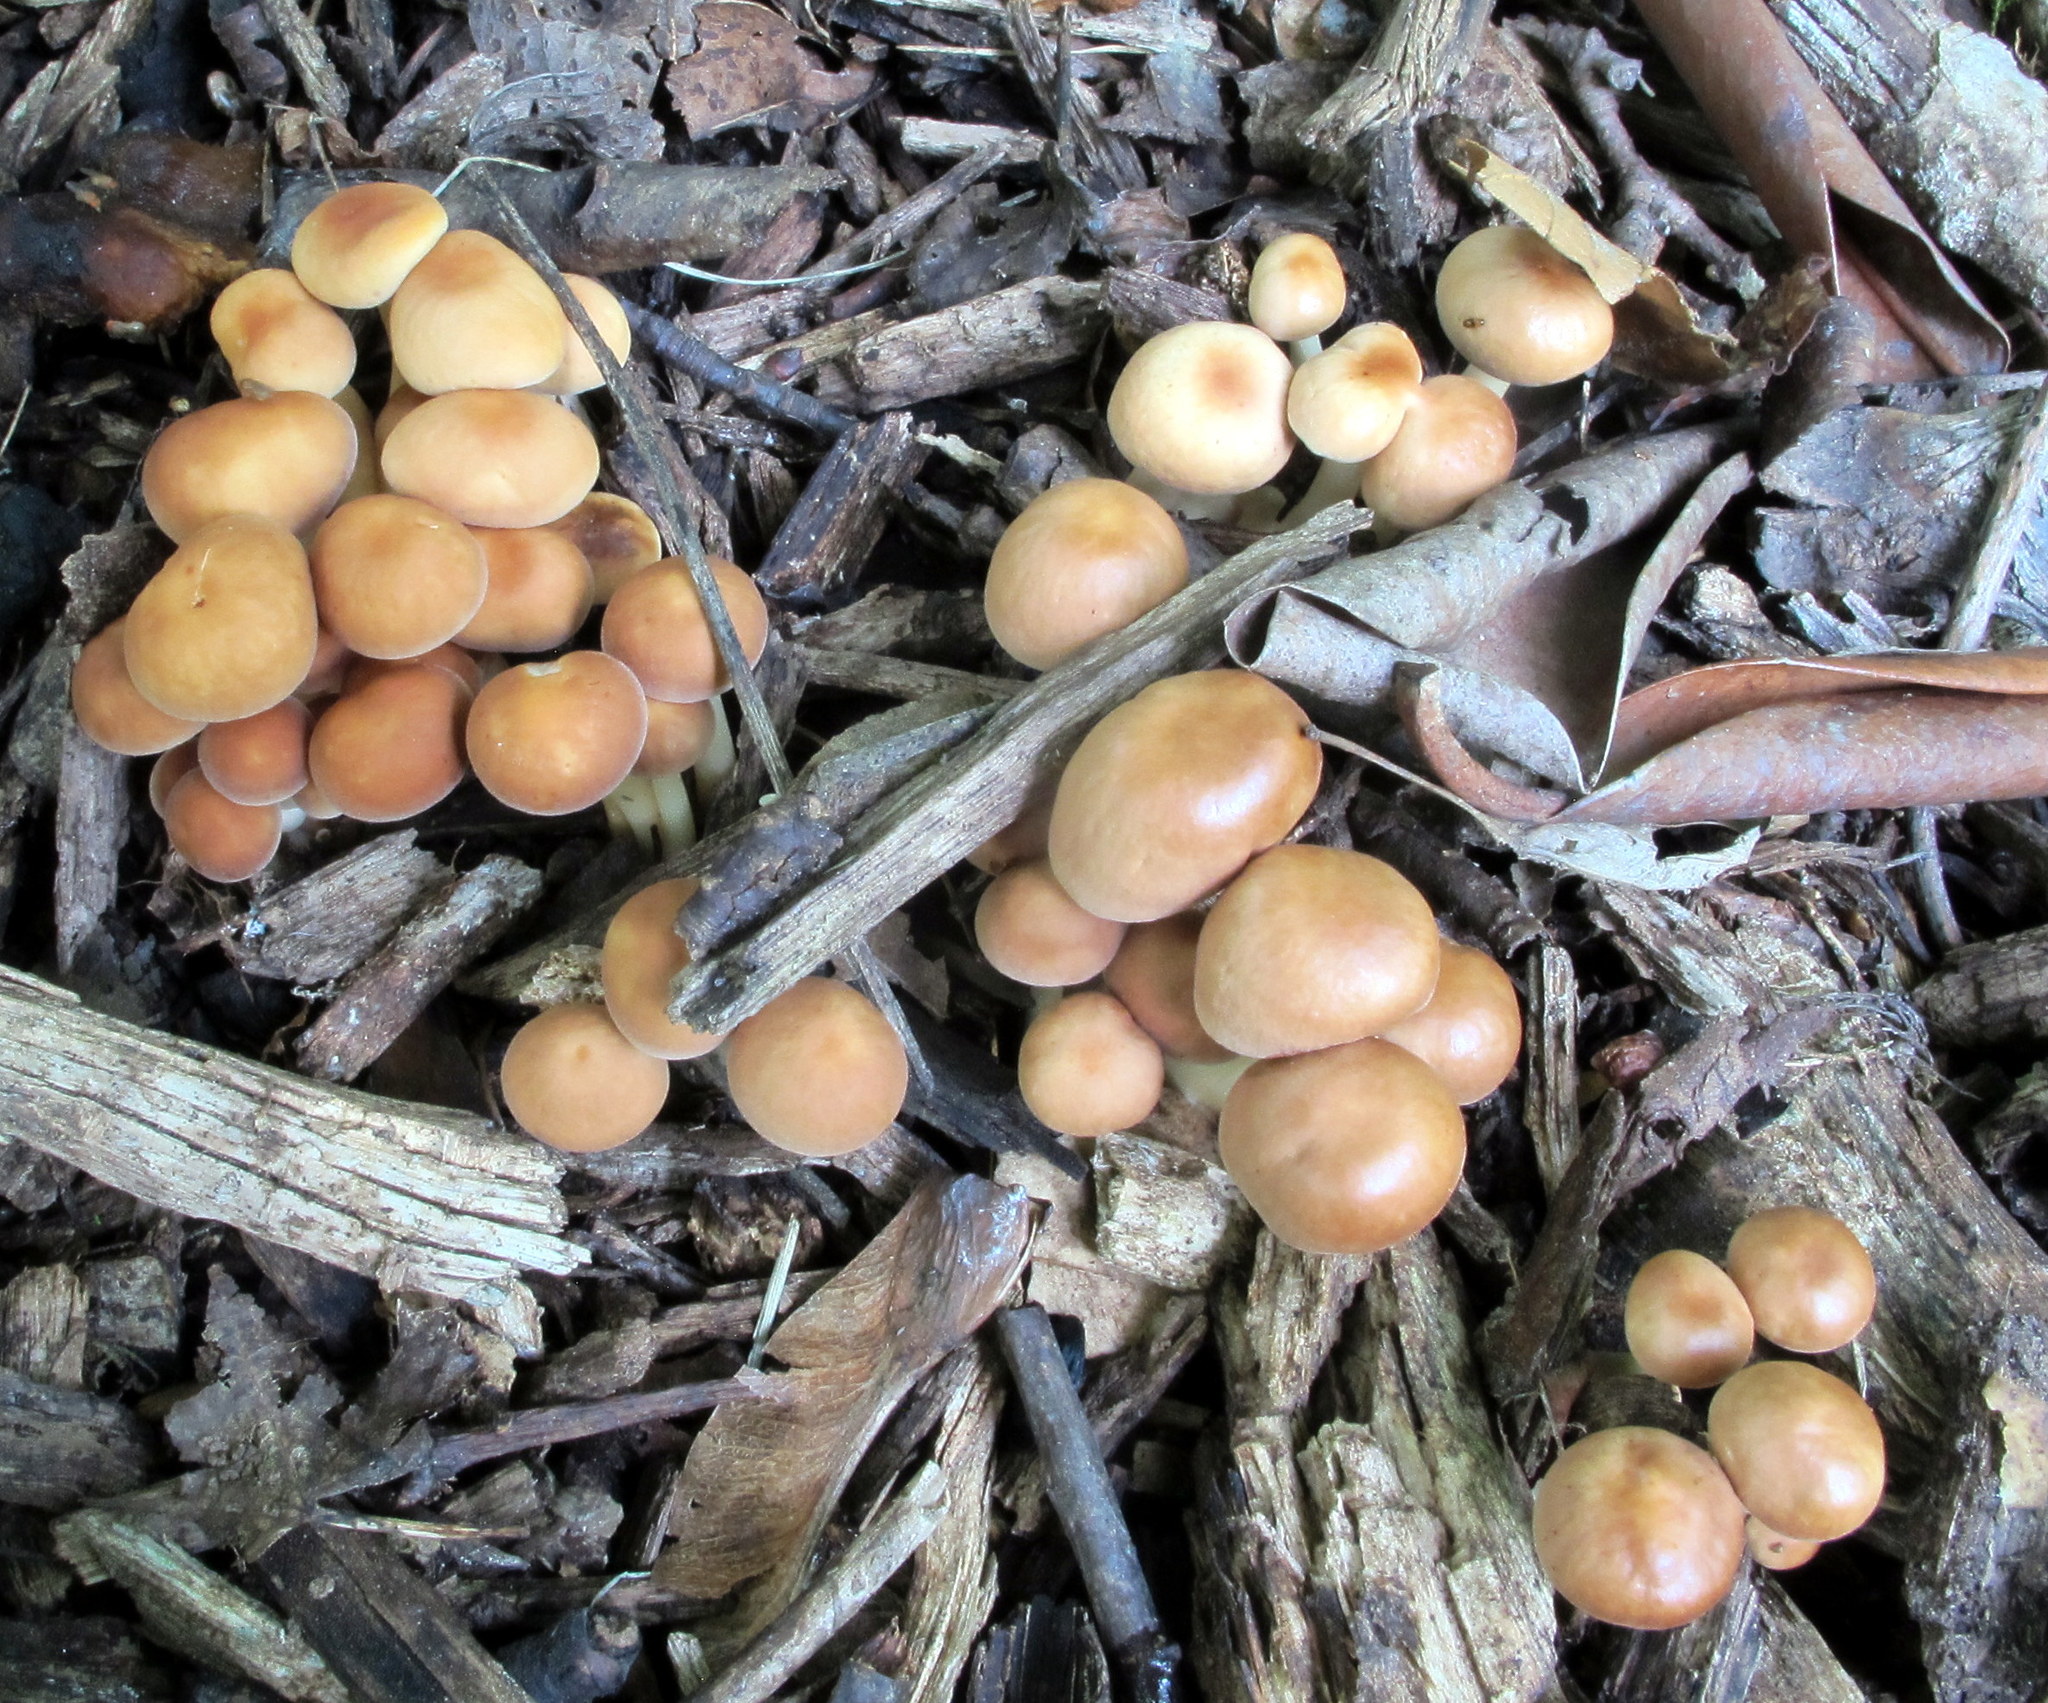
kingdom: Fungi
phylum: Basidiomycota
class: Agaricomycetes
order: Agaricales
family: Omphalotaceae
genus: Gymnopus
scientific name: Gymnopus dryophilus
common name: Penny top
